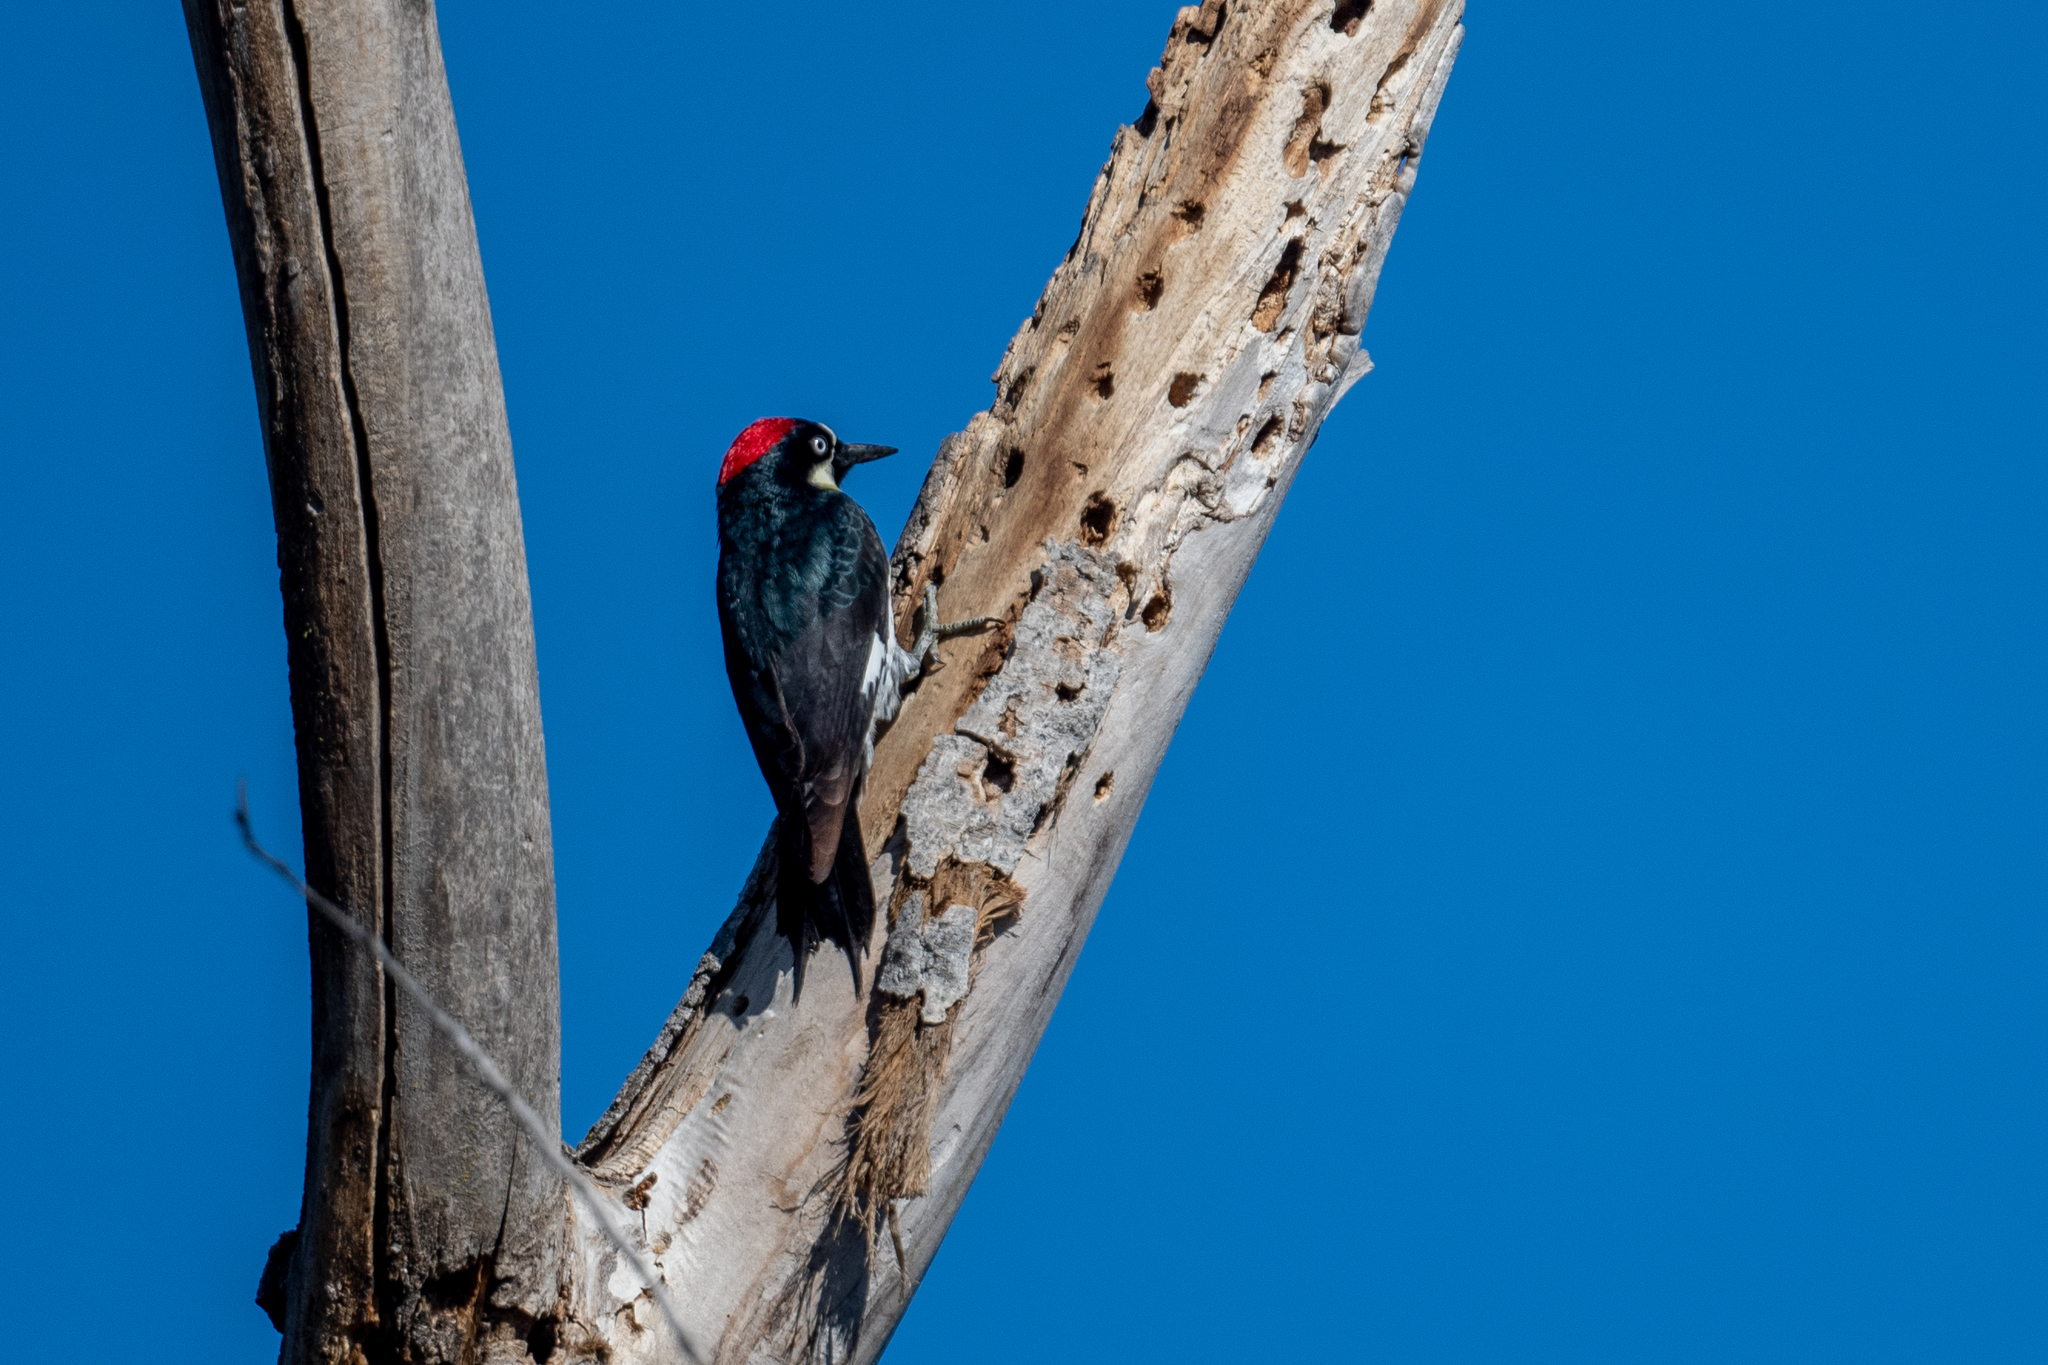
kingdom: Animalia
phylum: Chordata
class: Aves
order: Piciformes
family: Picidae
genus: Melanerpes
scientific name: Melanerpes formicivorus
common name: Acorn woodpecker
